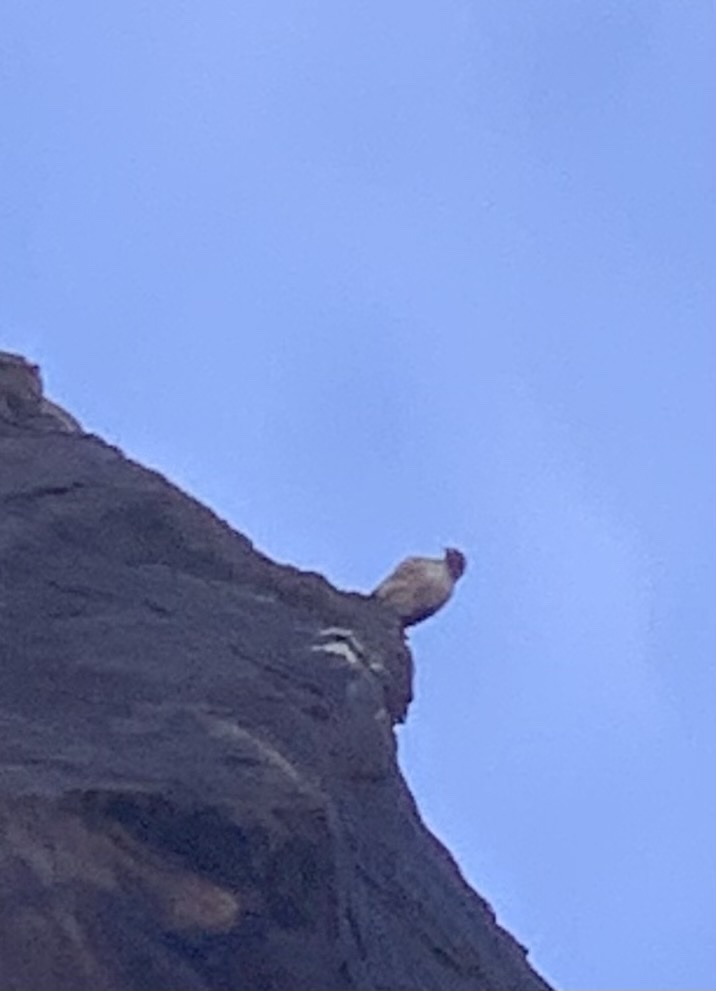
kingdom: Animalia
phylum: Chordata
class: Aves
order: Accipitriformes
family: Accipitridae
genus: Buteo
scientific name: Buteo jamaicensis
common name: Red-tailed hawk
